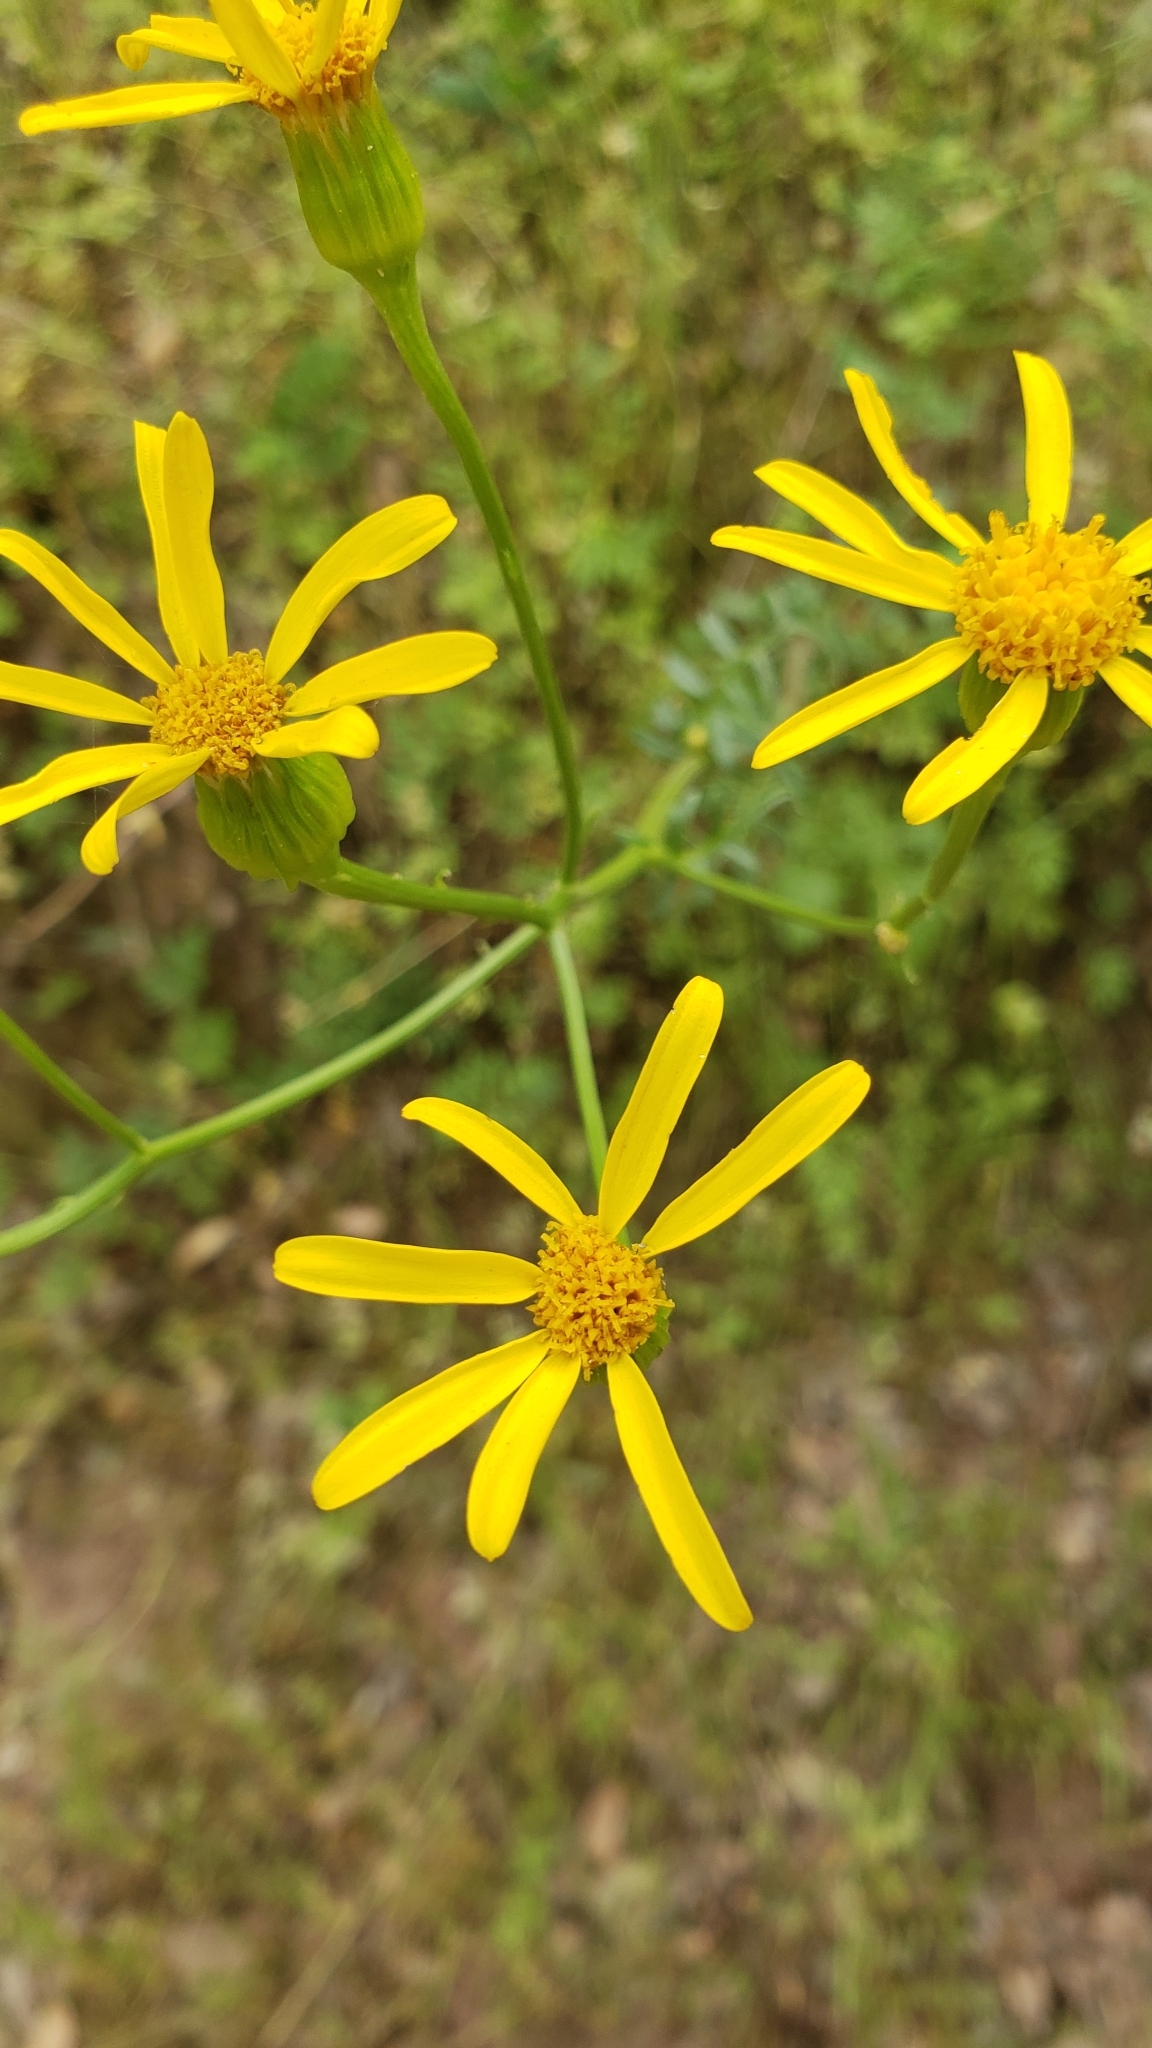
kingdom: Plantae
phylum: Tracheophyta
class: Magnoliopsida
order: Asterales
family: Asteraceae
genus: Packera
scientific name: Packera breweri
